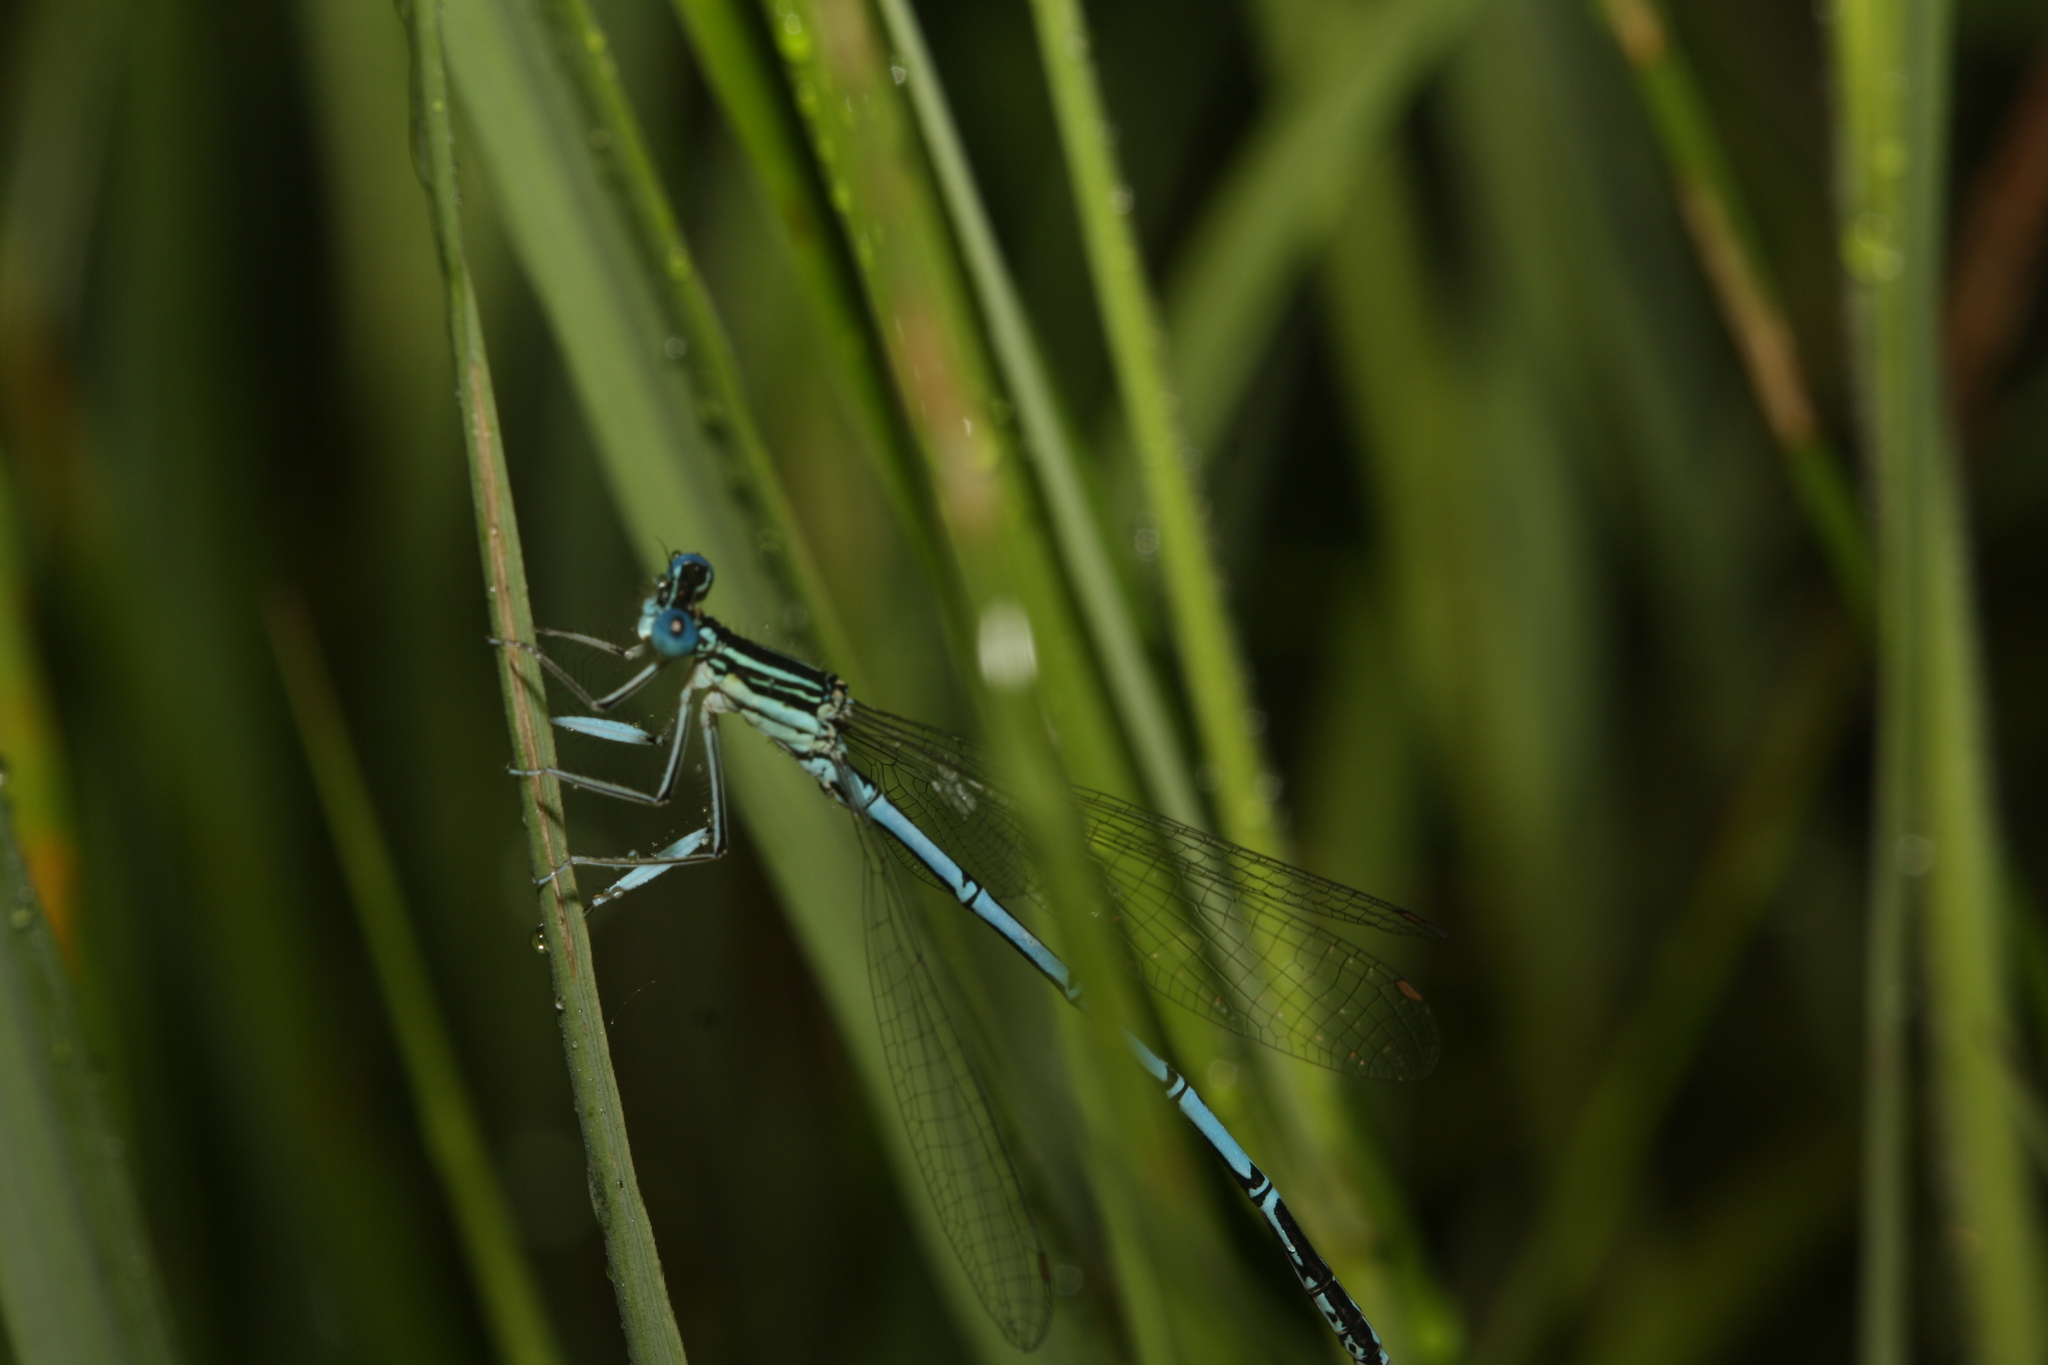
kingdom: Animalia
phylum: Arthropoda
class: Insecta
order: Odonata
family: Platycnemididae
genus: Platycnemis
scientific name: Platycnemis pennipes
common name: White-legged damselfly
